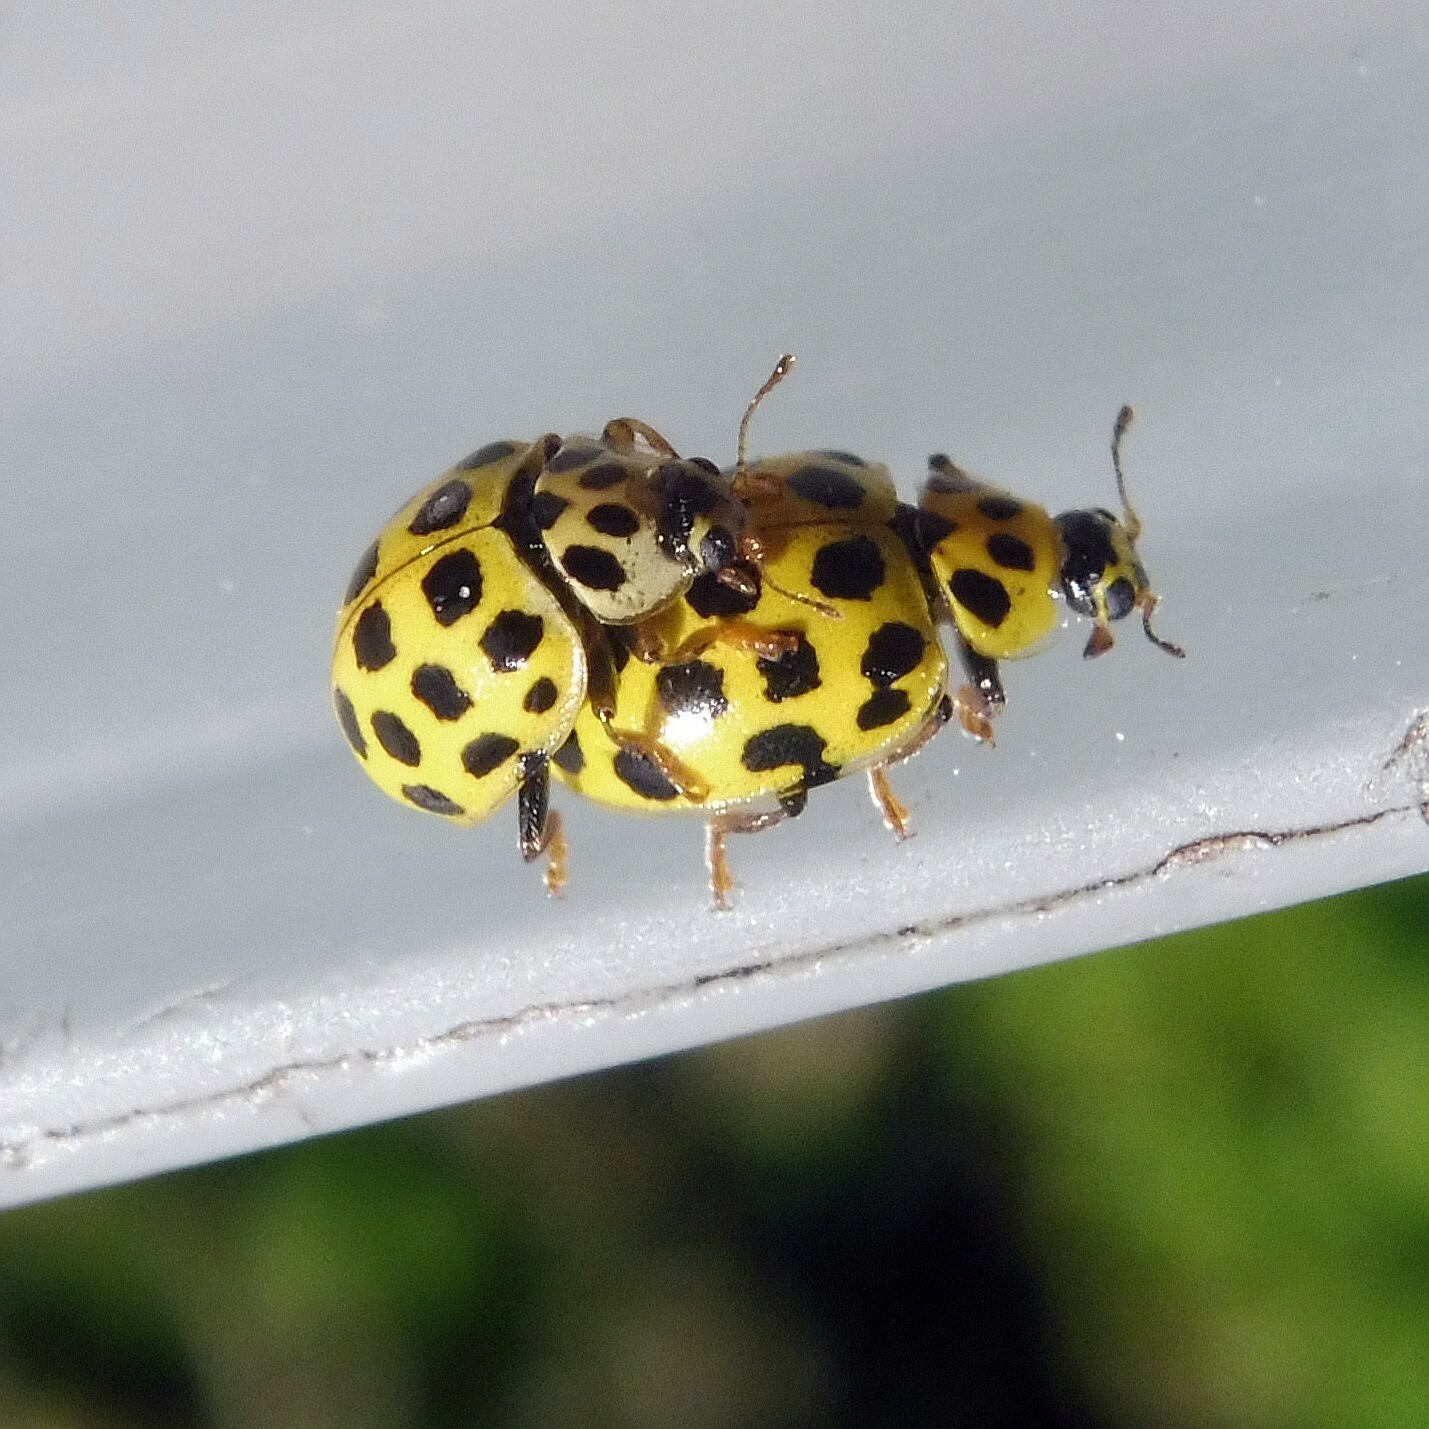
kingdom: Animalia
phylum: Arthropoda
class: Insecta
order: Coleoptera
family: Coccinellidae
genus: Psyllobora
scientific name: Psyllobora vigintiduopunctata
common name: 22-spot ladybird
